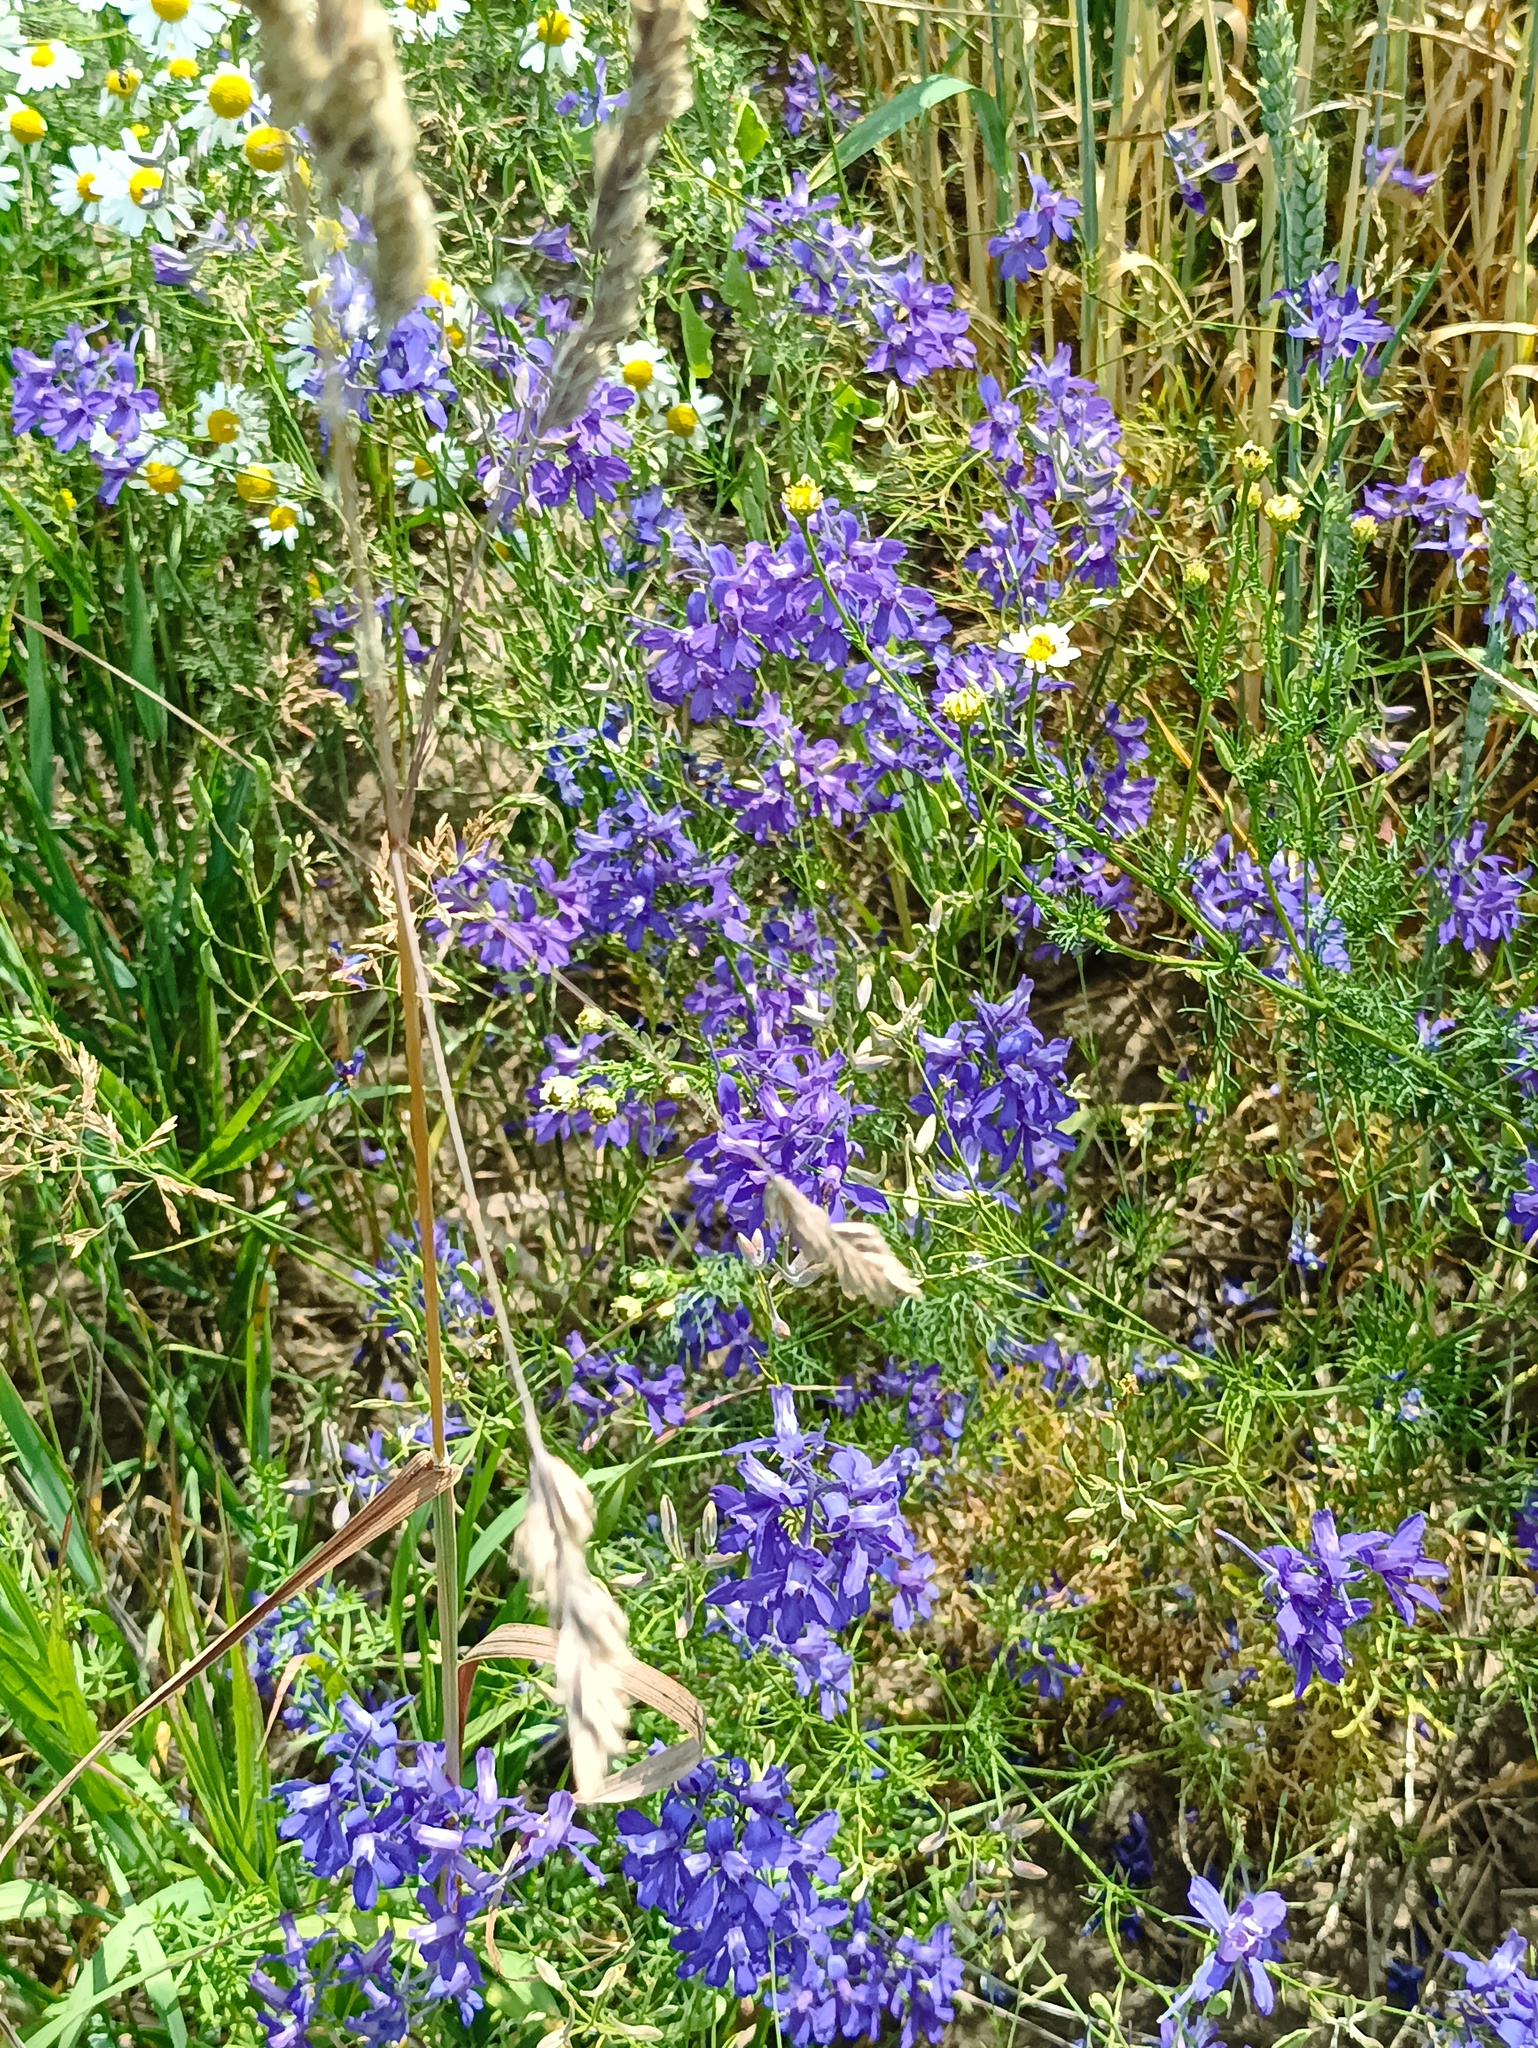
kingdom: Plantae
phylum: Tracheophyta
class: Magnoliopsida
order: Ranunculales
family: Ranunculaceae
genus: Delphinium
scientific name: Delphinium consolida
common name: Branching larkspur
